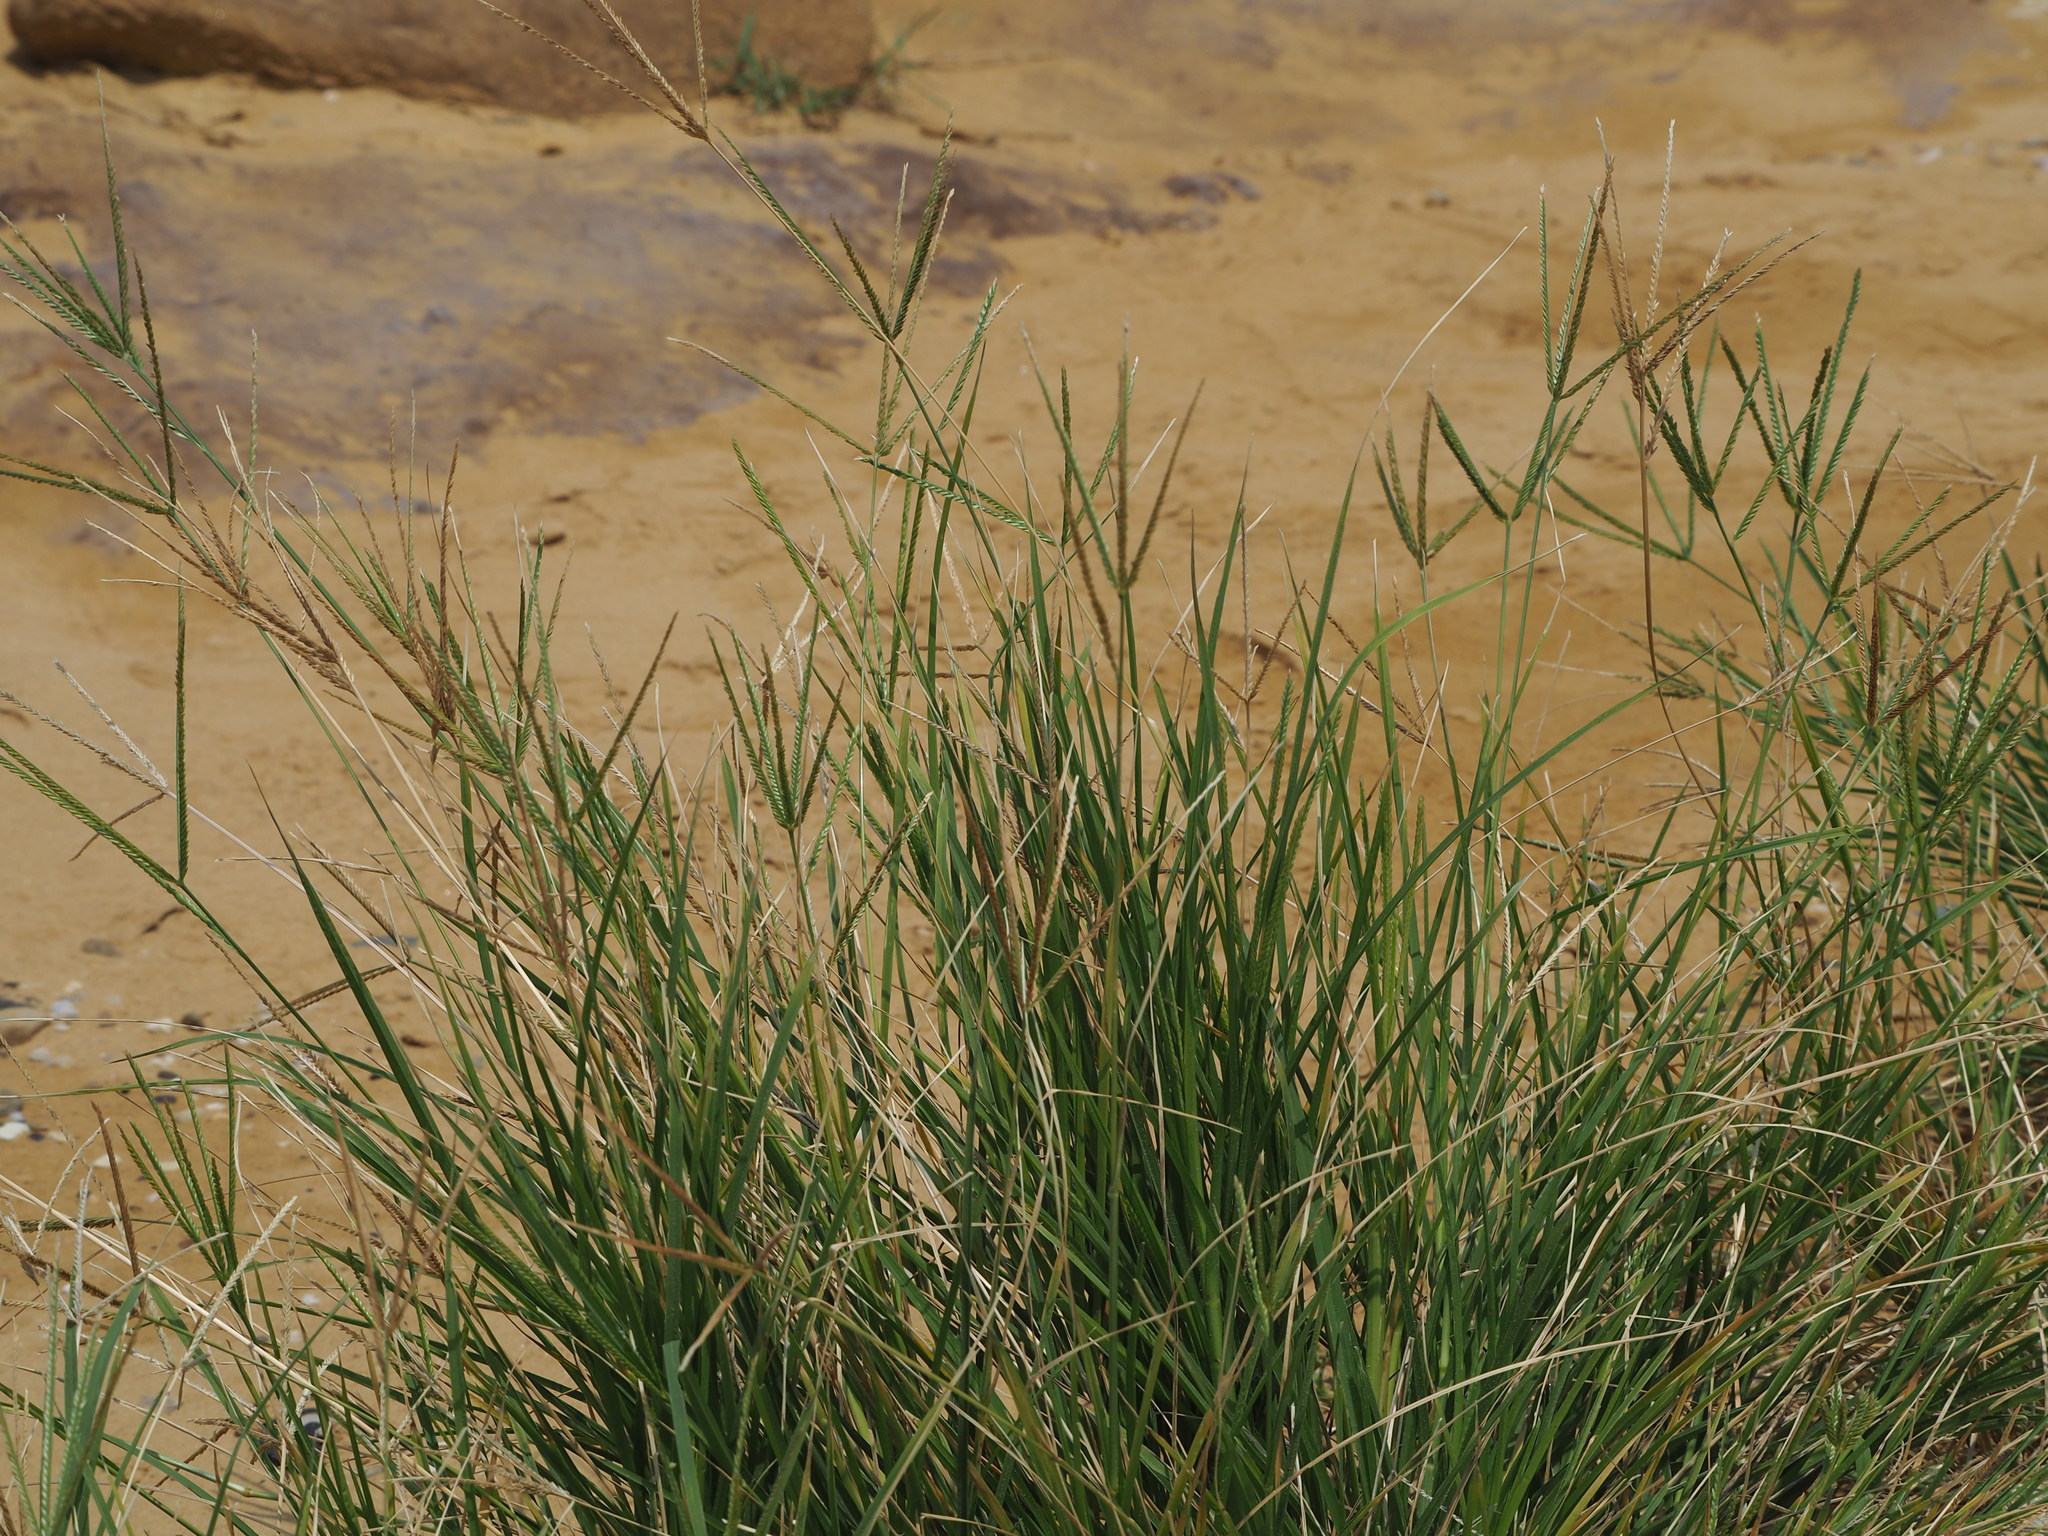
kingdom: Plantae
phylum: Tracheophyta
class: Liliopsida
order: Poales
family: Poaceae
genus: Eleusine
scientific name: Eleusine indica
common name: Yard-grass
